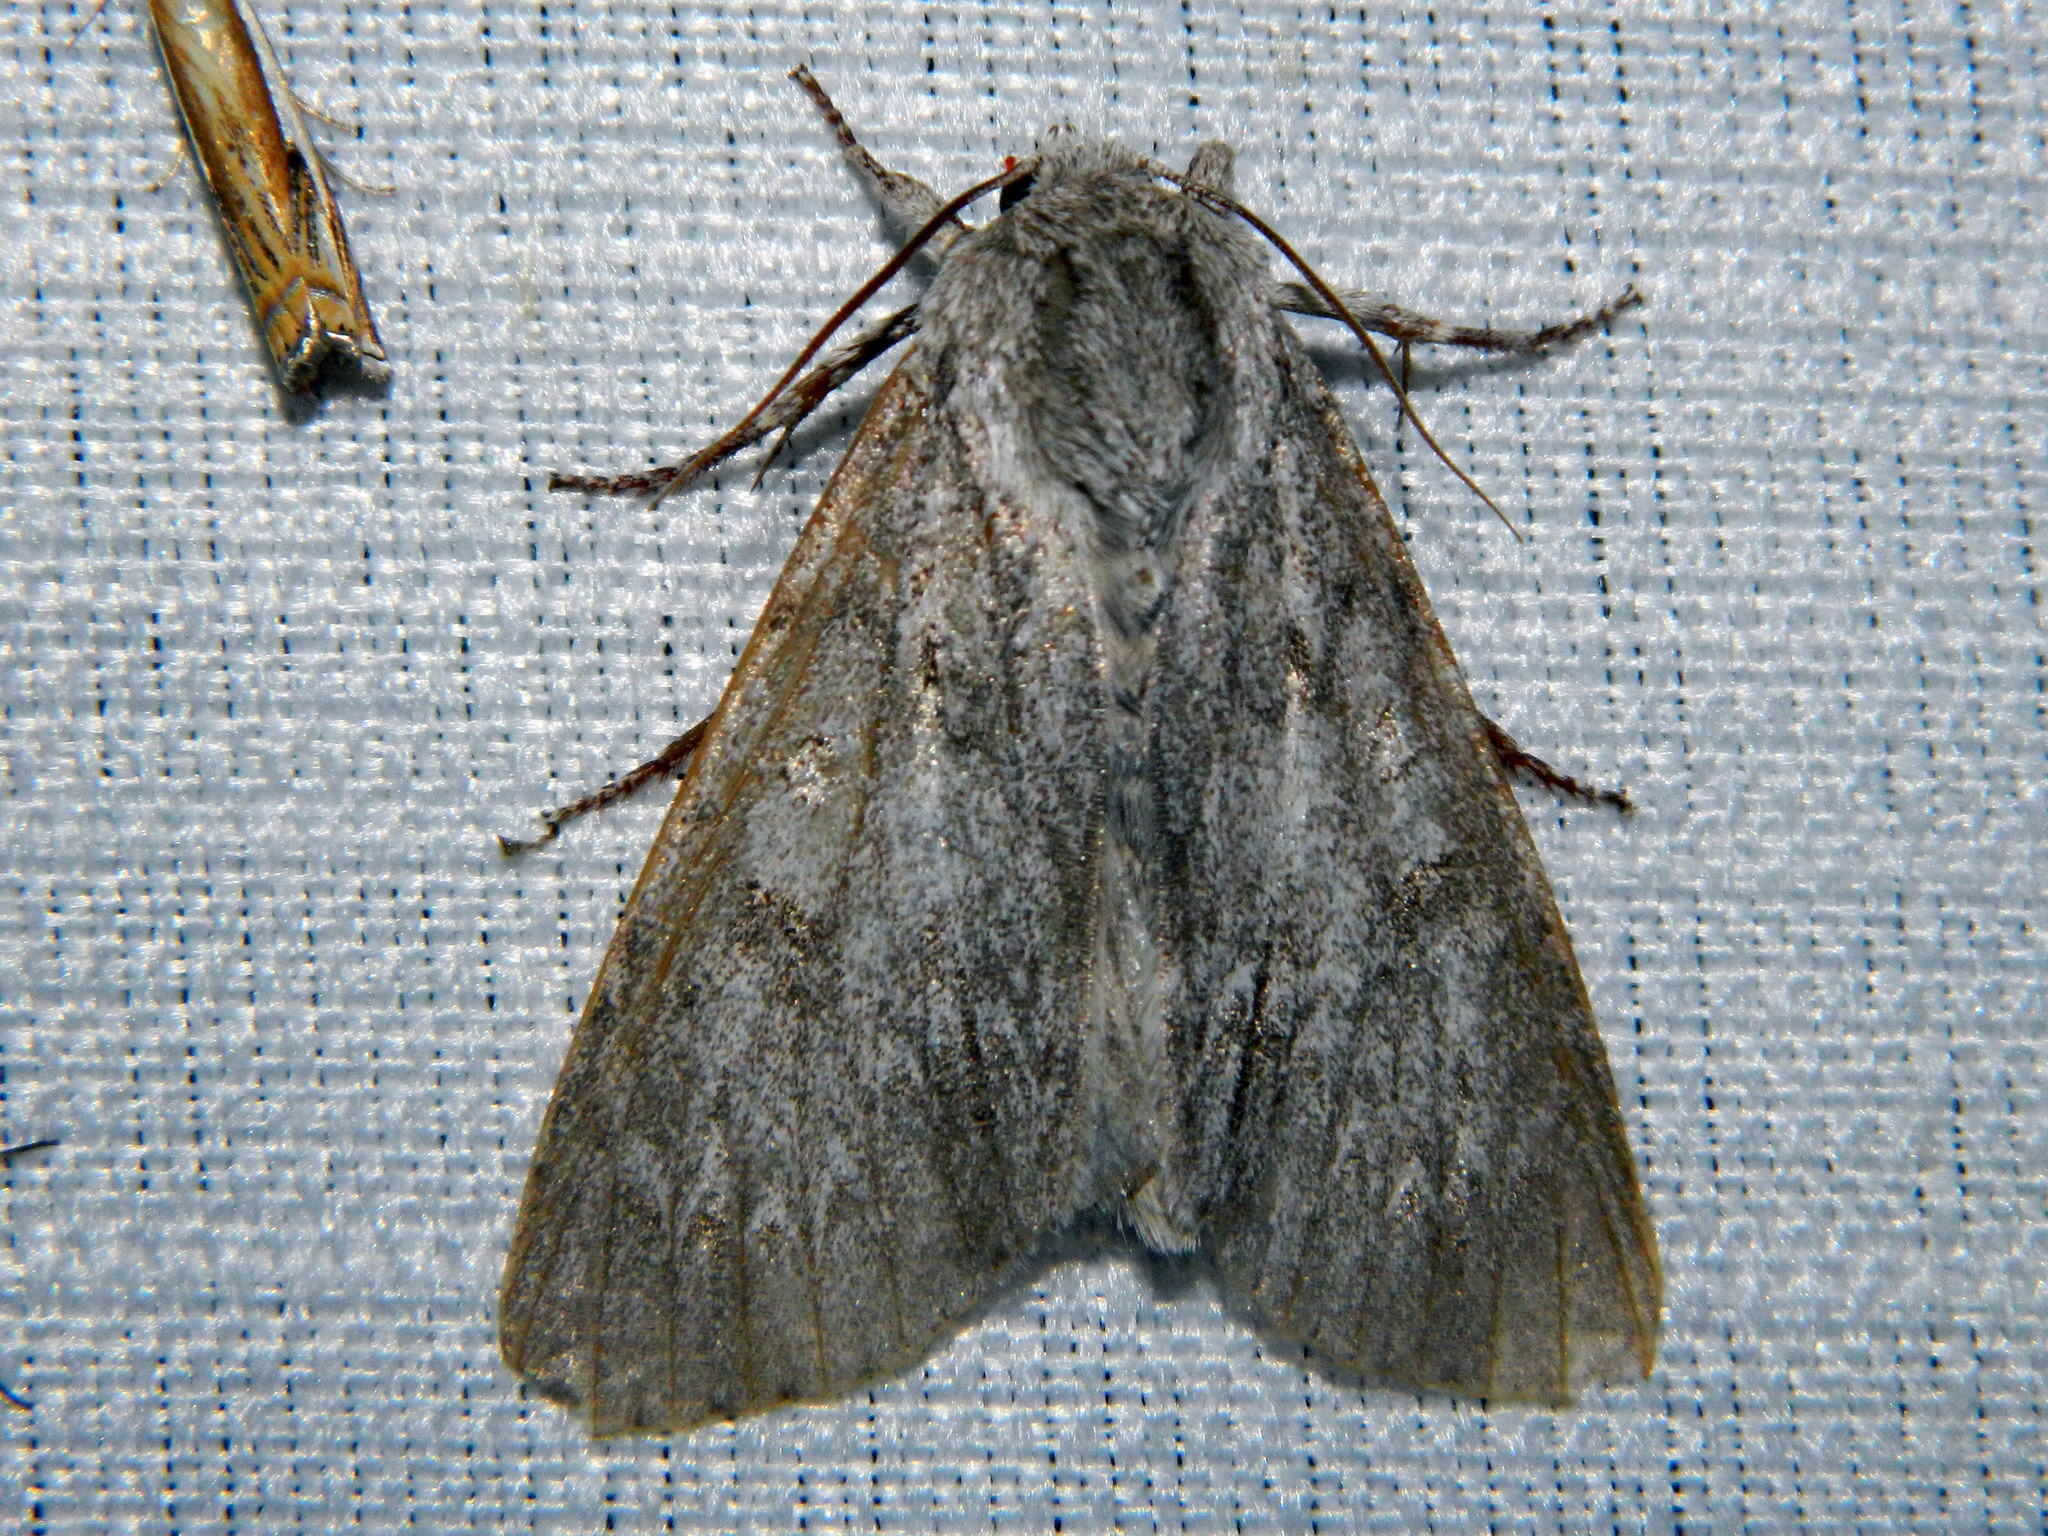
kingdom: Animalia
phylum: Arthropoda
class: Insecta
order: Lepidoptera
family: Noctuidae
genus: Acronicta
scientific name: Acronicta americana
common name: American dagger
